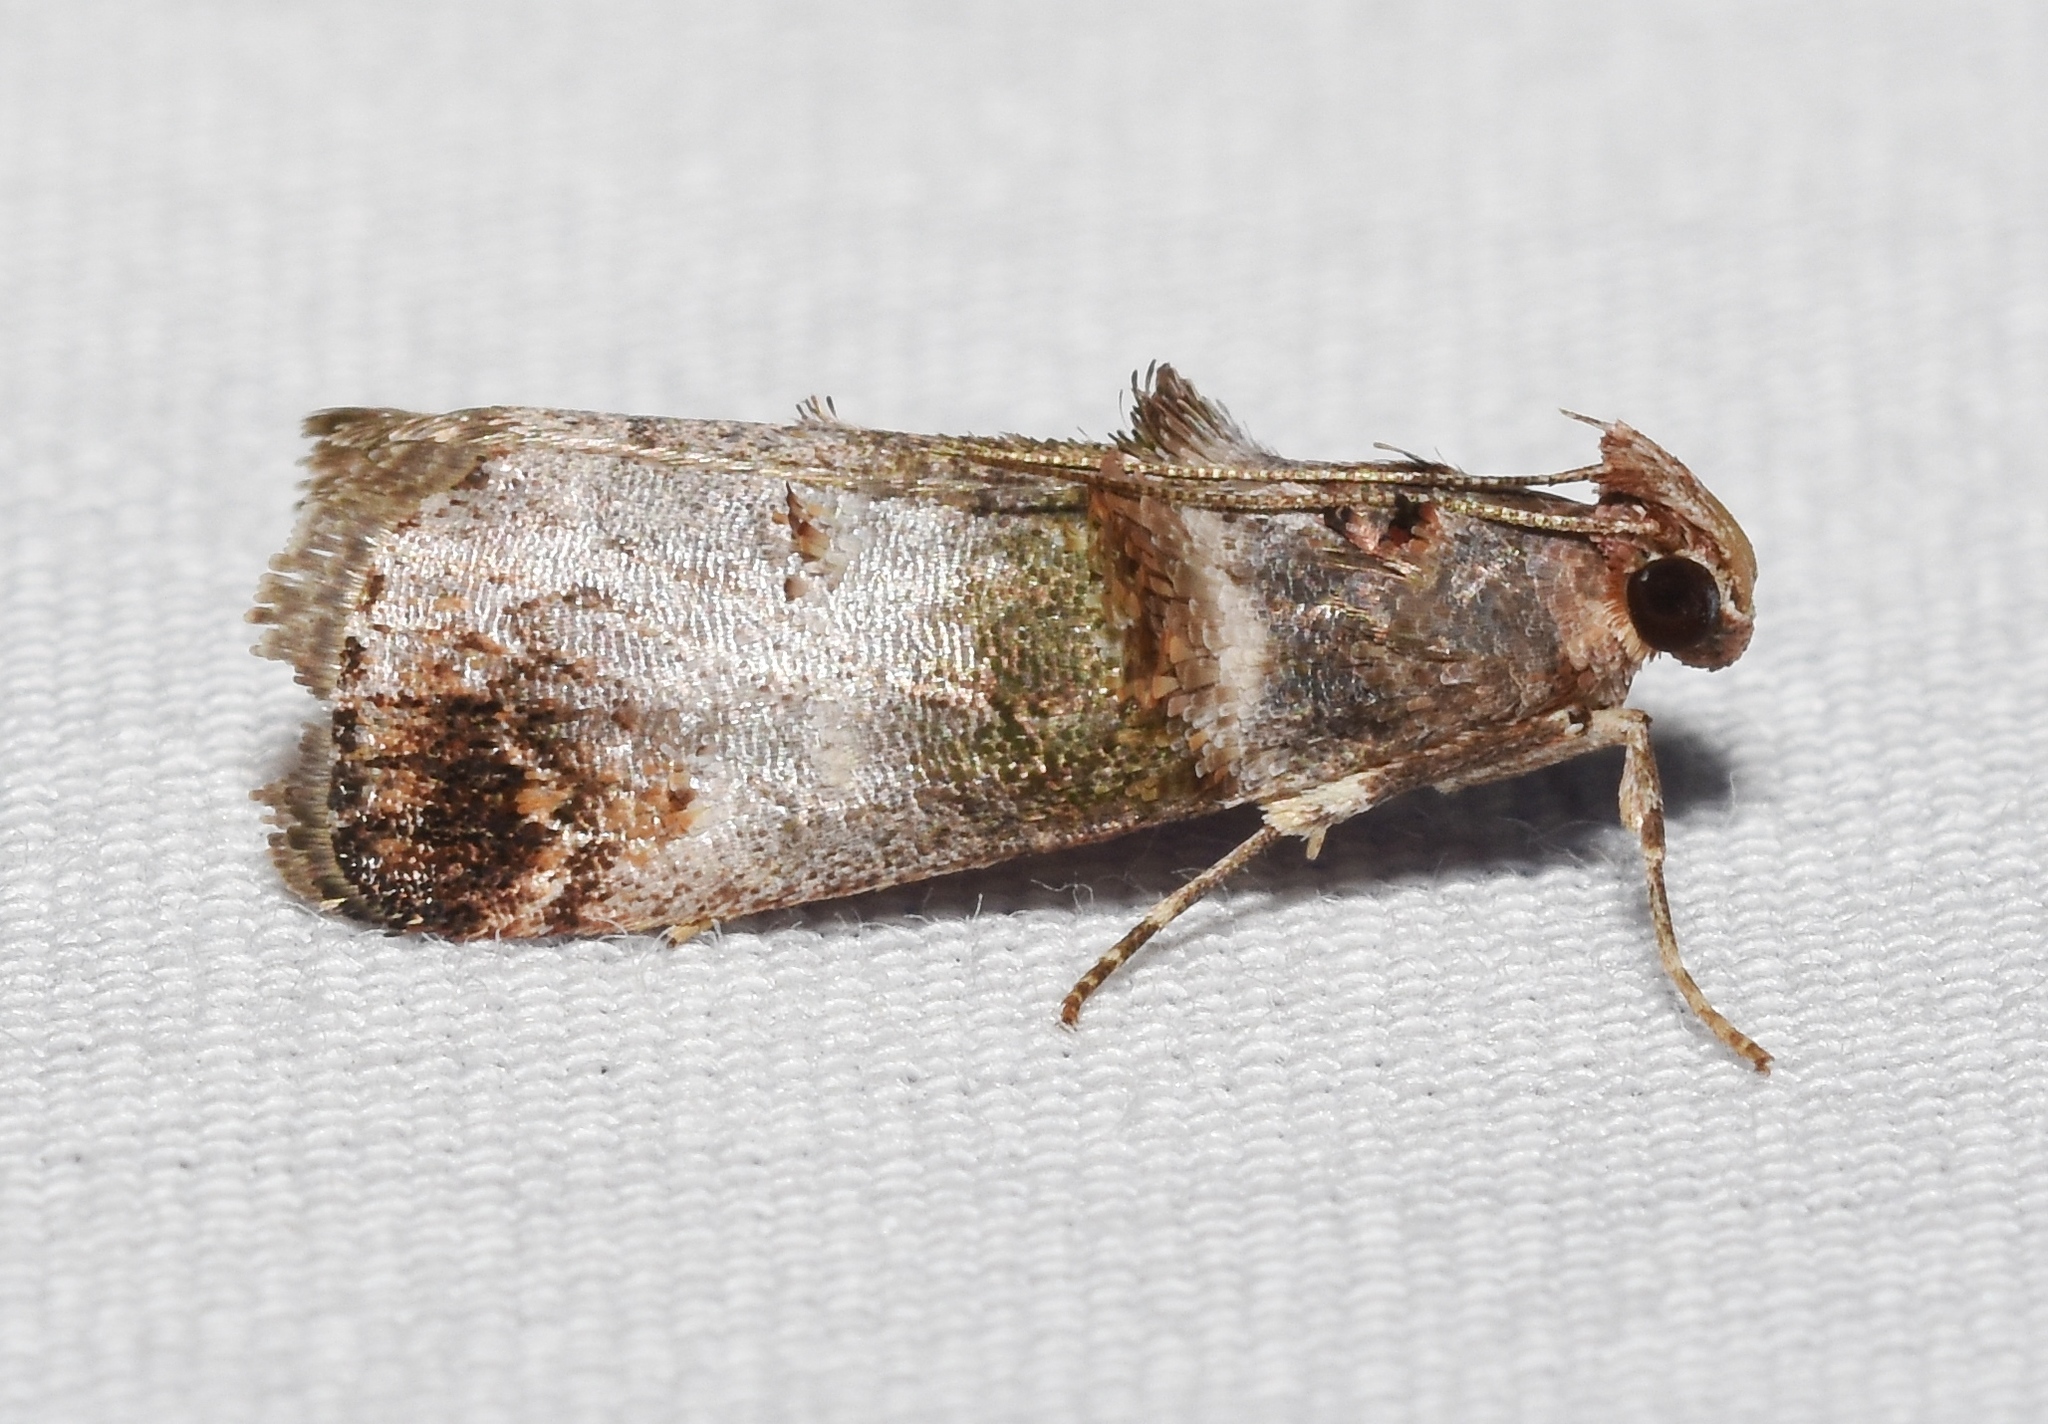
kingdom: Animalia
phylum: Arthropoda
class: Insecta
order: Lepidoptera
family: Pyralidae
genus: Oneida
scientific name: Oneida lunulalis
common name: Orange-tufted oneida moth
